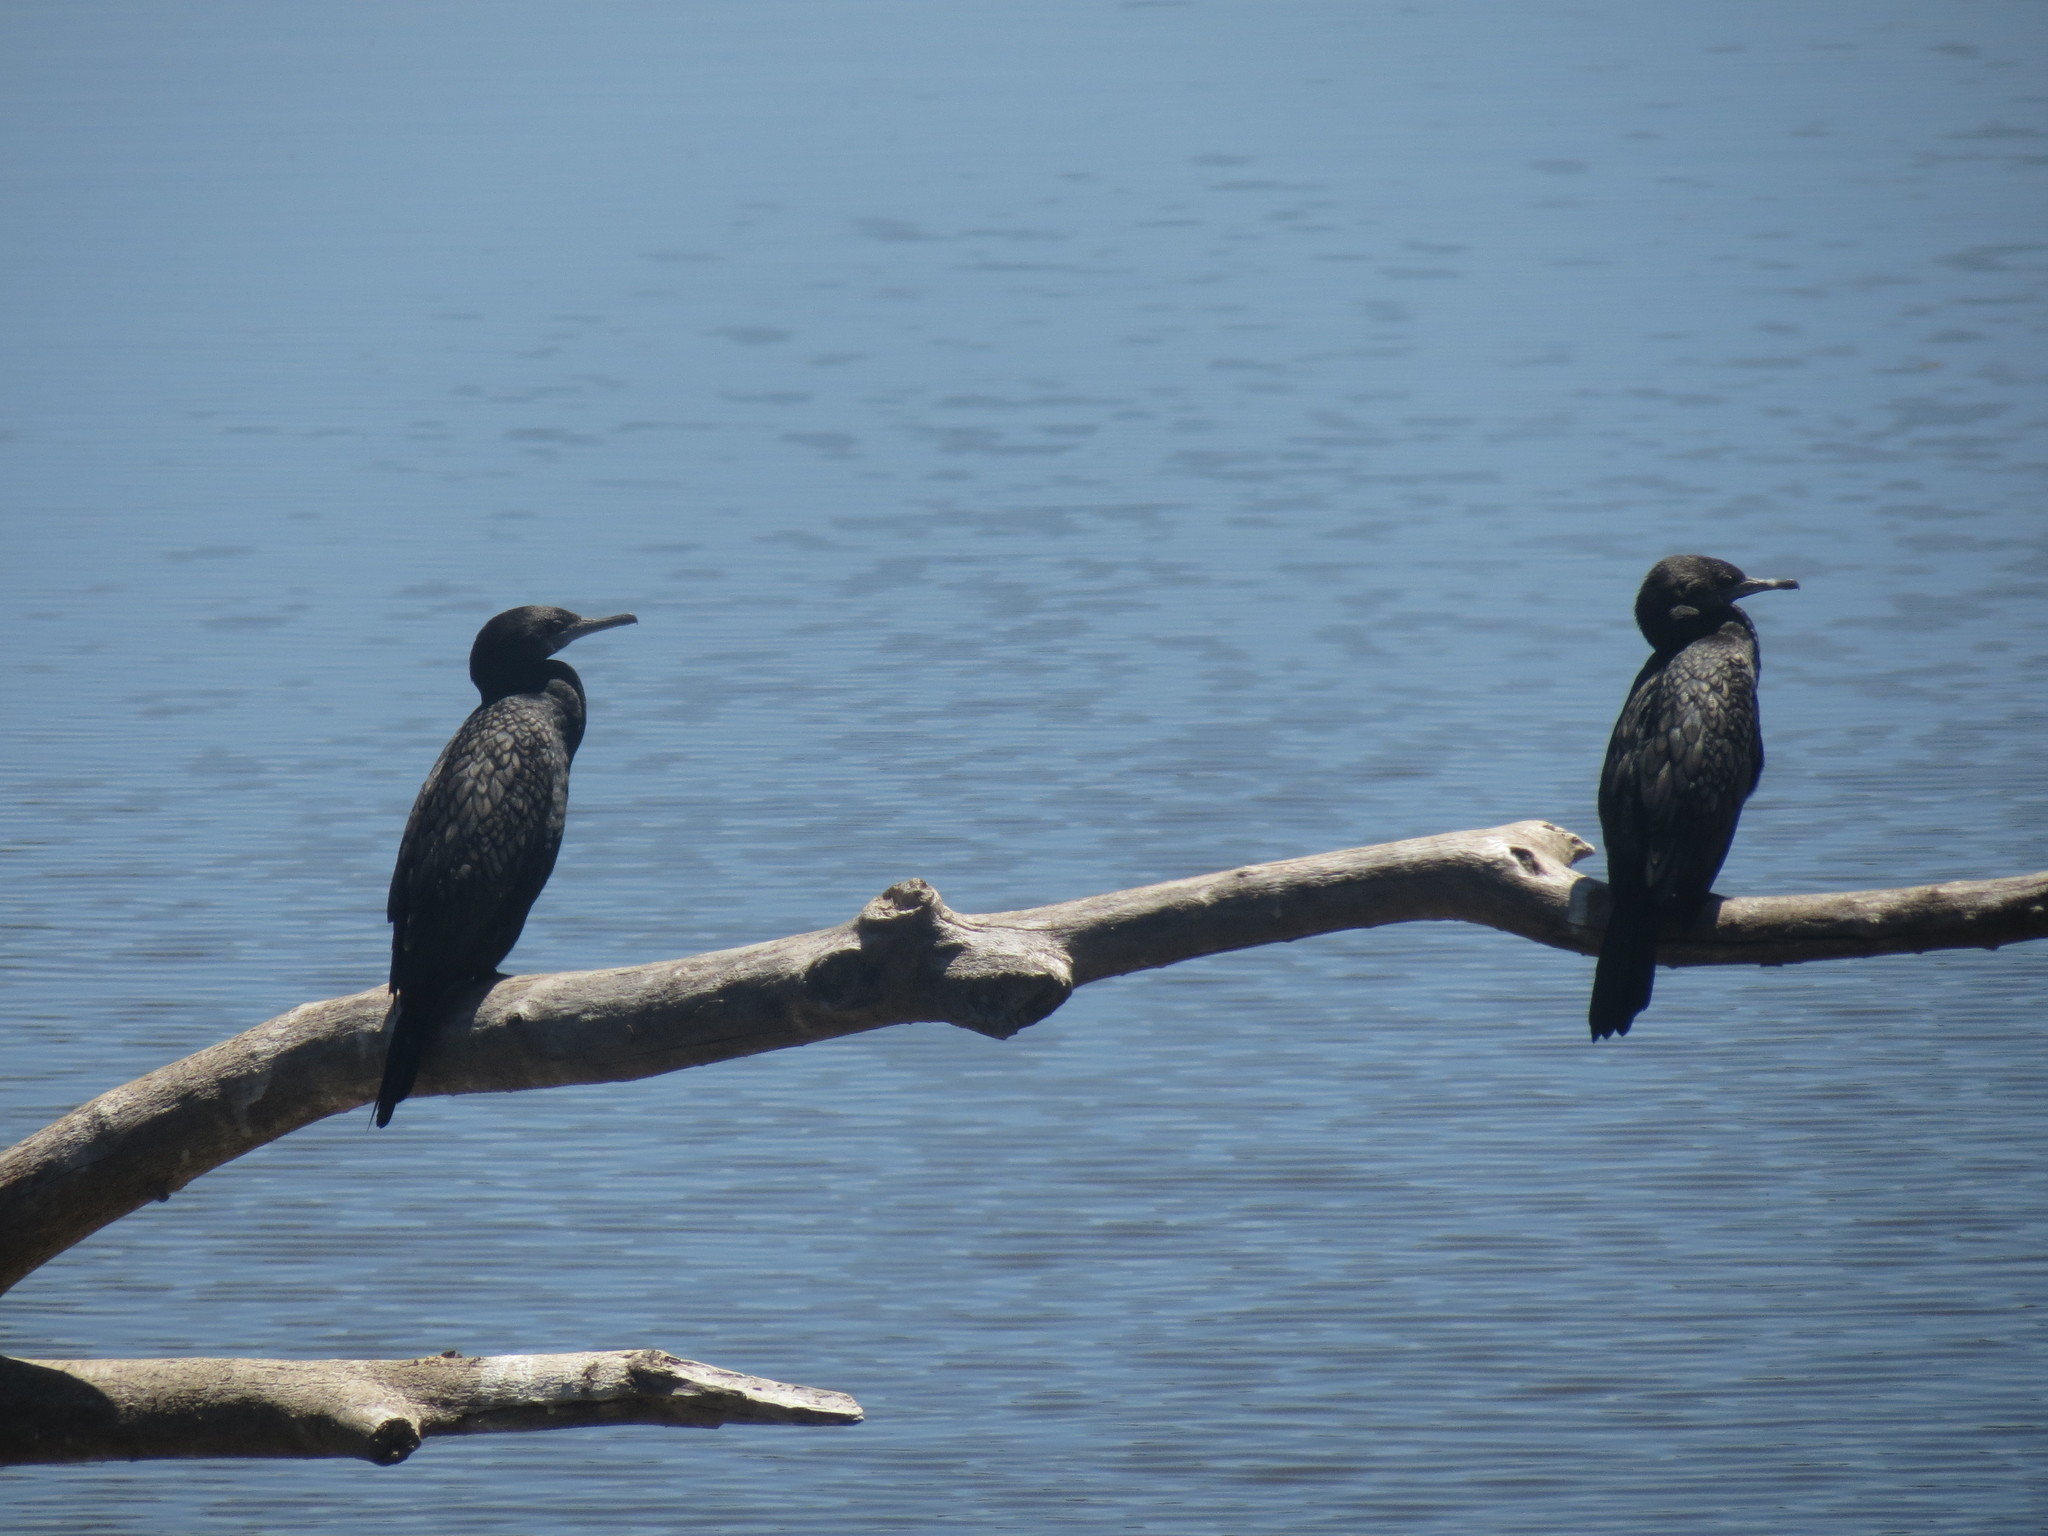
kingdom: Animalia
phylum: Chordata
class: Aves
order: Suliformes
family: Phalacrocoracidae
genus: Phalacrocorax
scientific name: Phalacrocorax sulcirostris
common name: Little black cormorant
